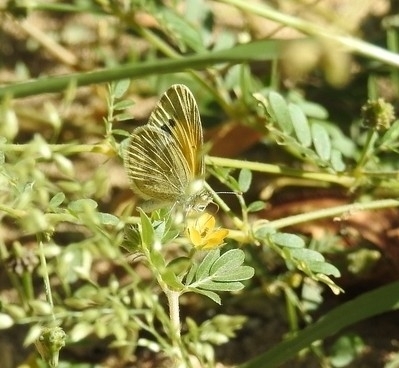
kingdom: Animalia
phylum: Arthropoda
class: Insecta
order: Lepidoptera
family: Pieridae
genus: Nathalis
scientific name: Nathalis iole
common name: Dainty sulphur
